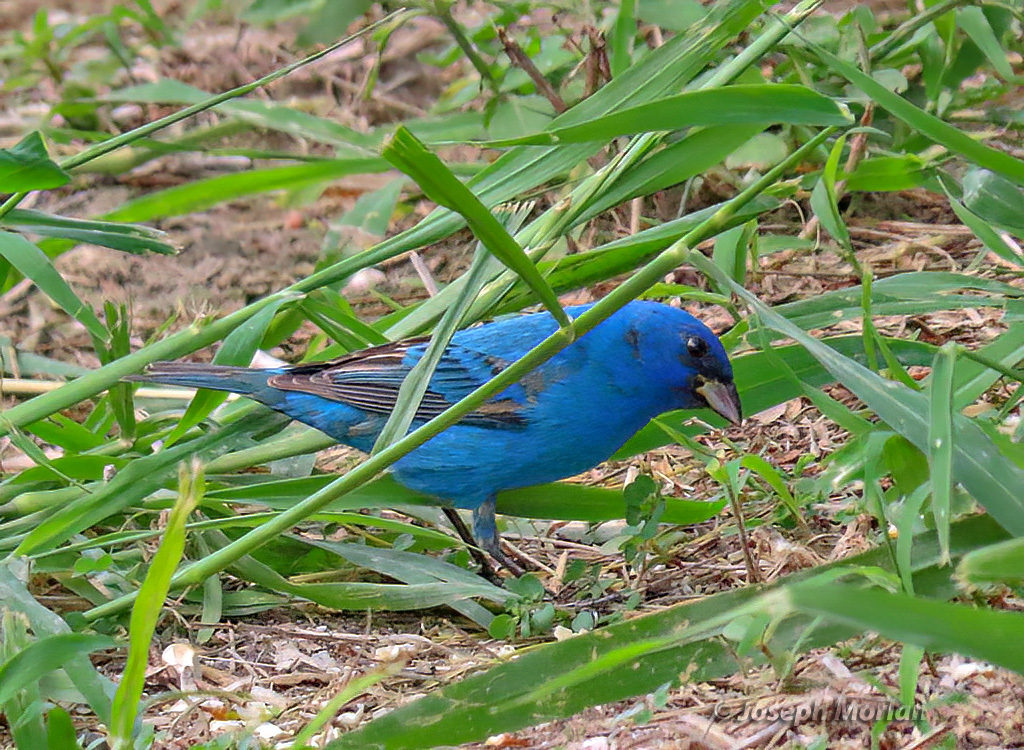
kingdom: Animalia
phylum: Chordata
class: Aves
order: Passeriformes
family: Cardinalidae
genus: Passerina
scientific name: Passerina cyanea
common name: Indigo bunting
